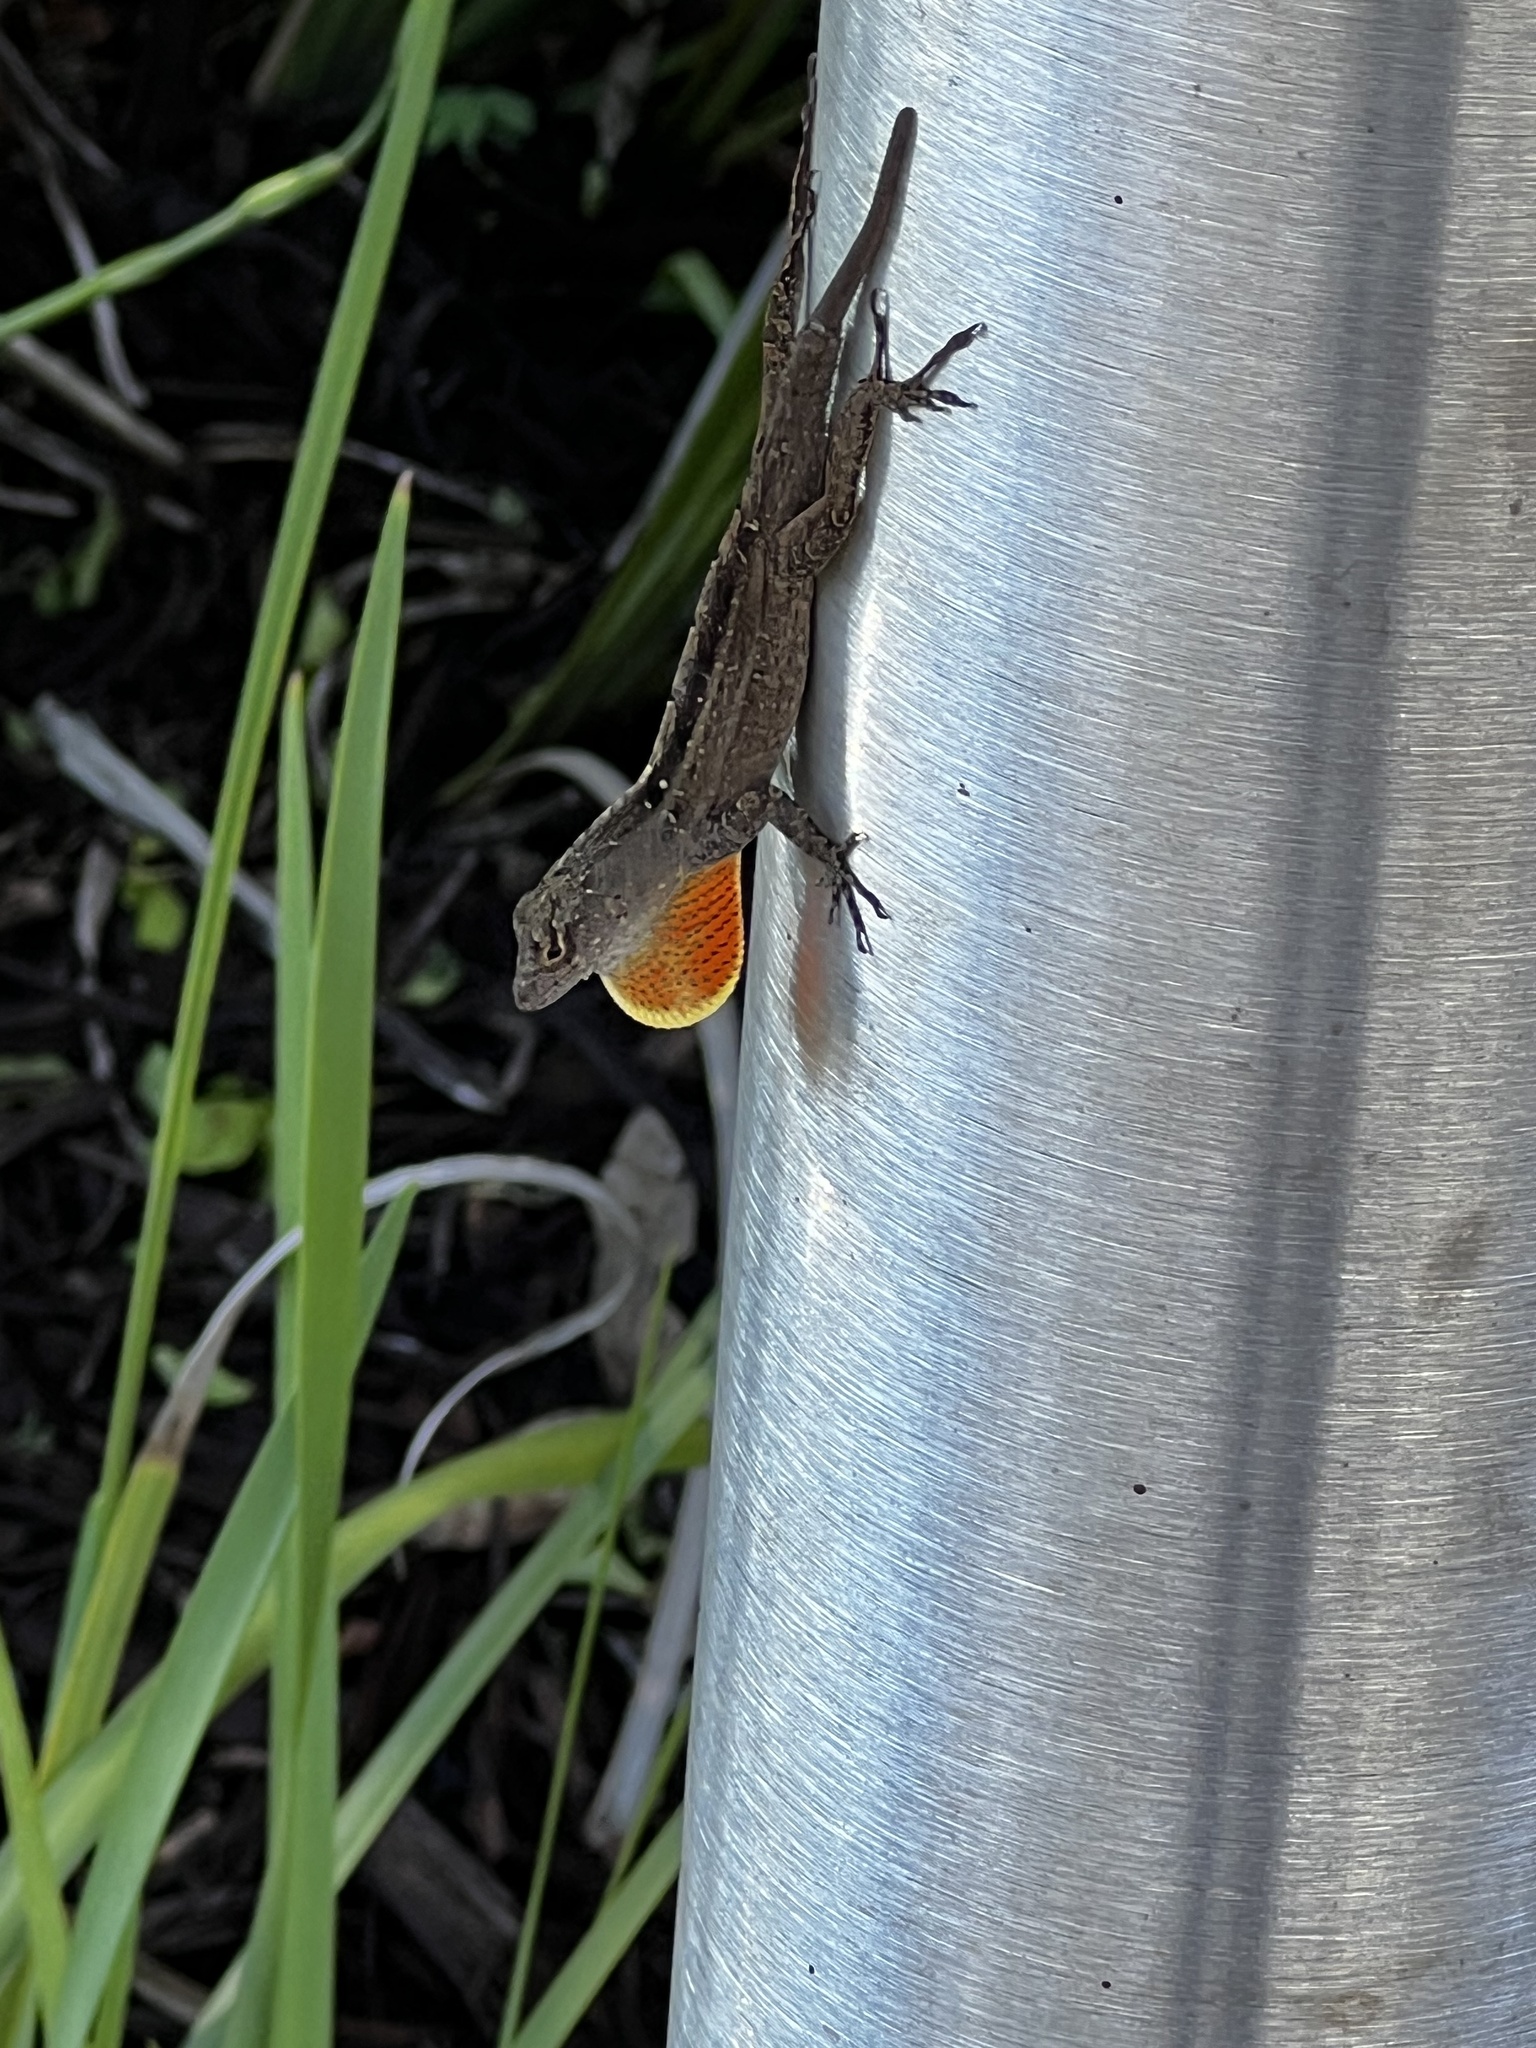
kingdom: Animalia
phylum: Chordata
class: Squamata
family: Dactyloidae
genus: Anolis
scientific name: Anolis sagrei
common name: Brown anole
